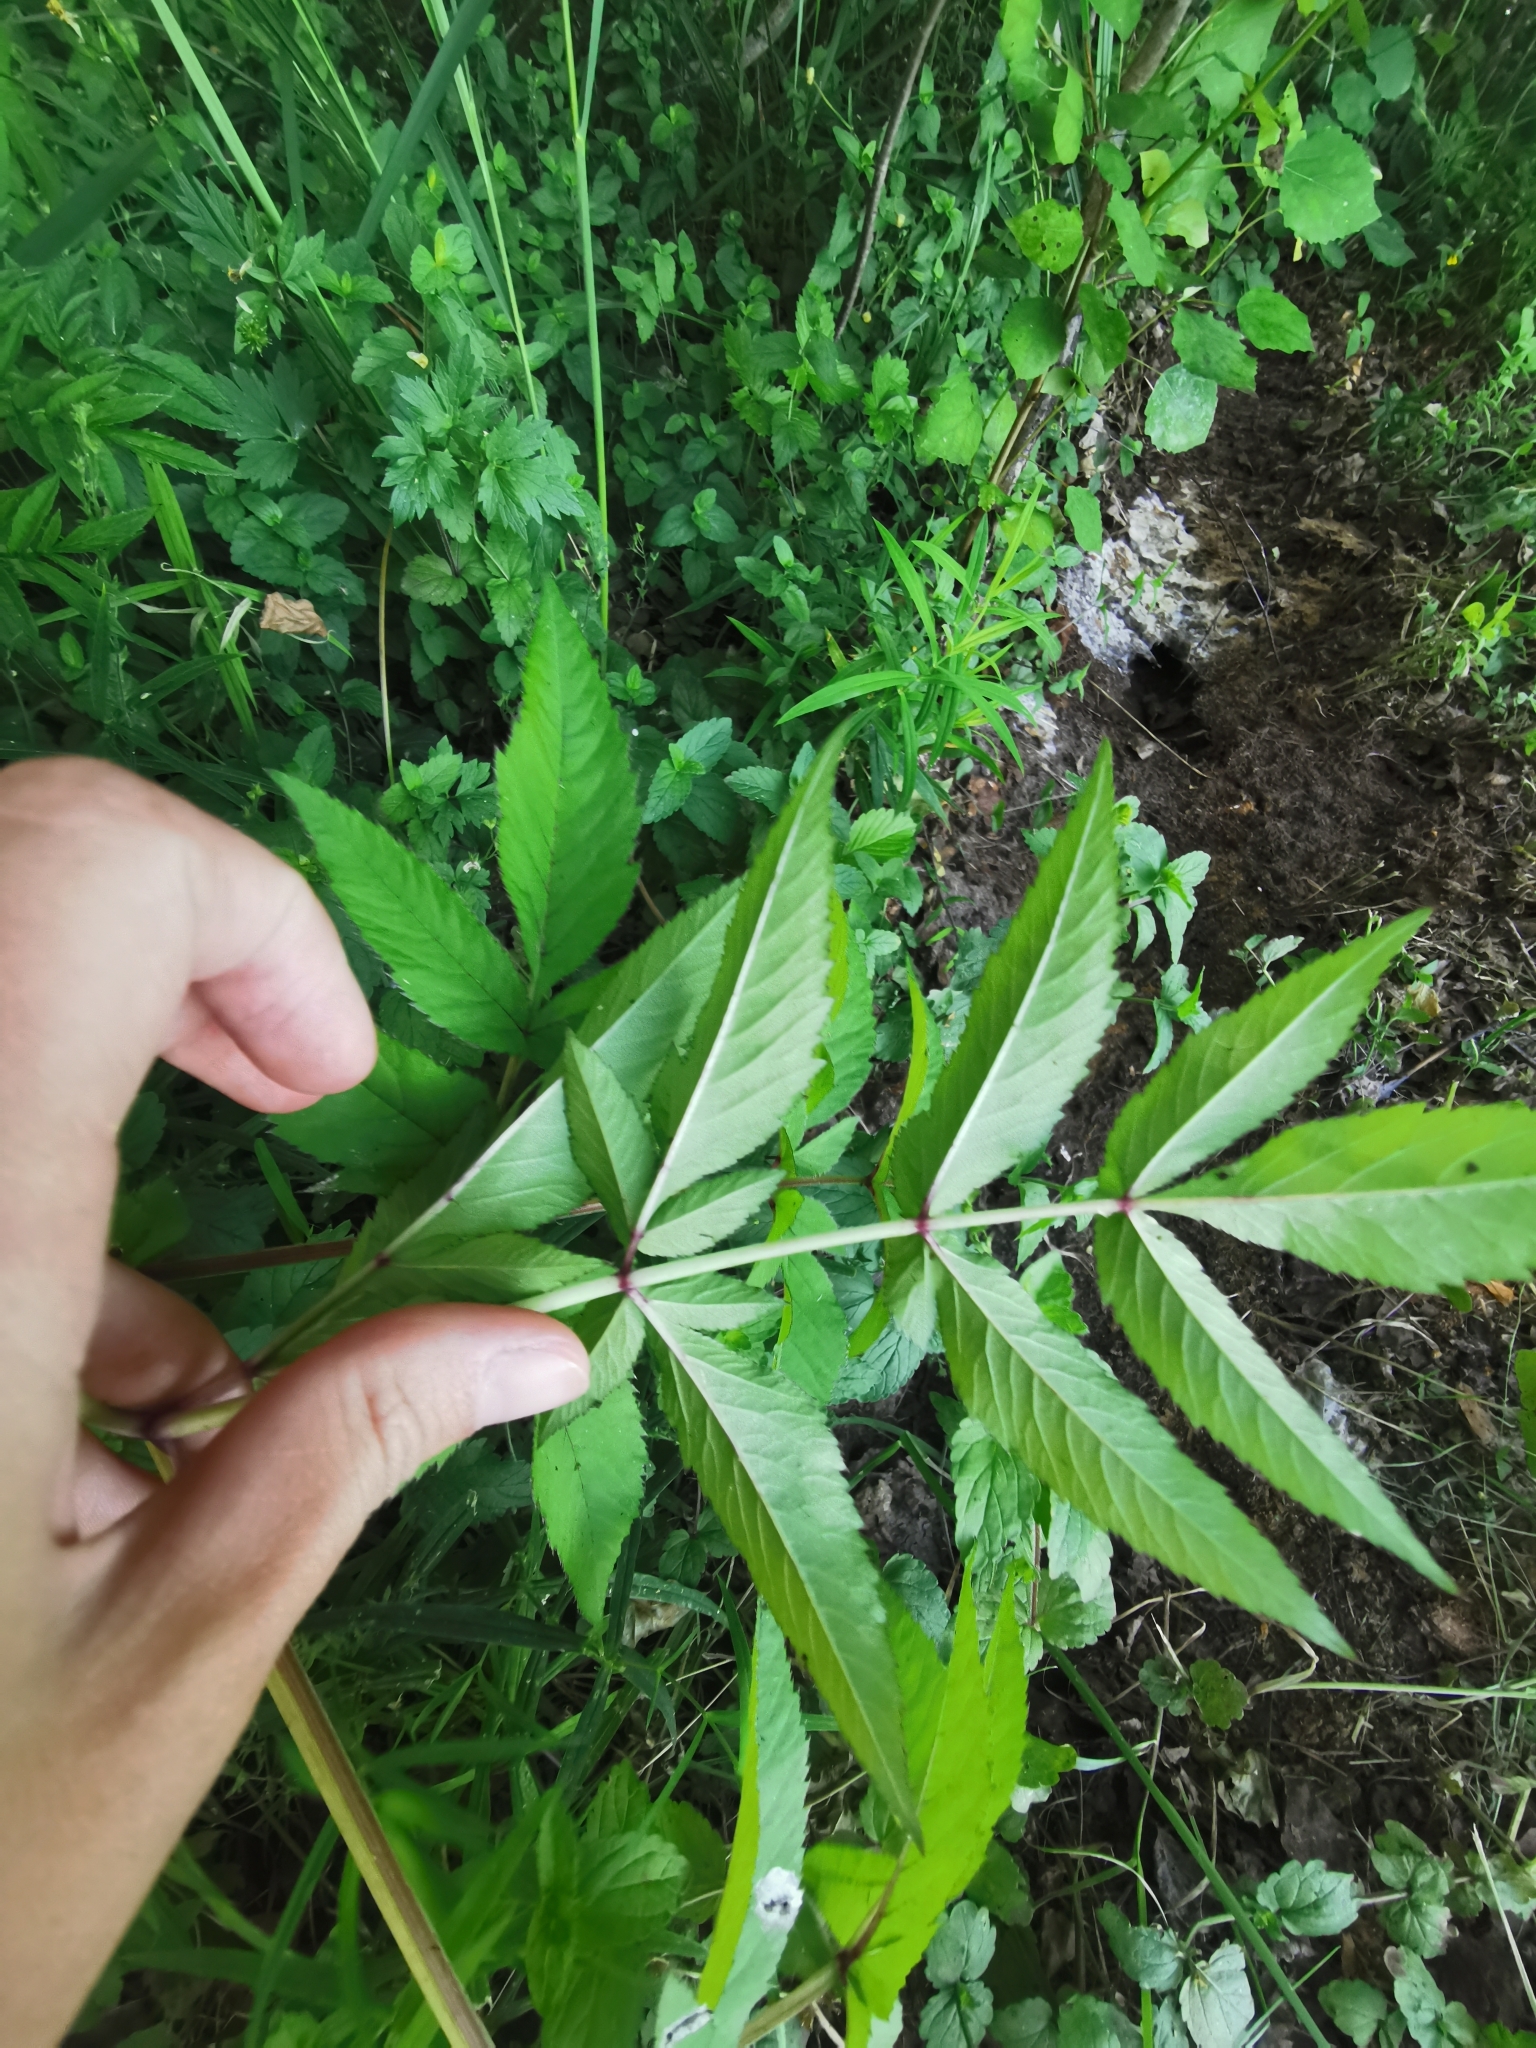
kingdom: Plantae
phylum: Tracheophyta
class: Magnoliopsida
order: Apiales
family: Apiaceae
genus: Angelica
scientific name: Angelica sylvestris
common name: Wild angelica
